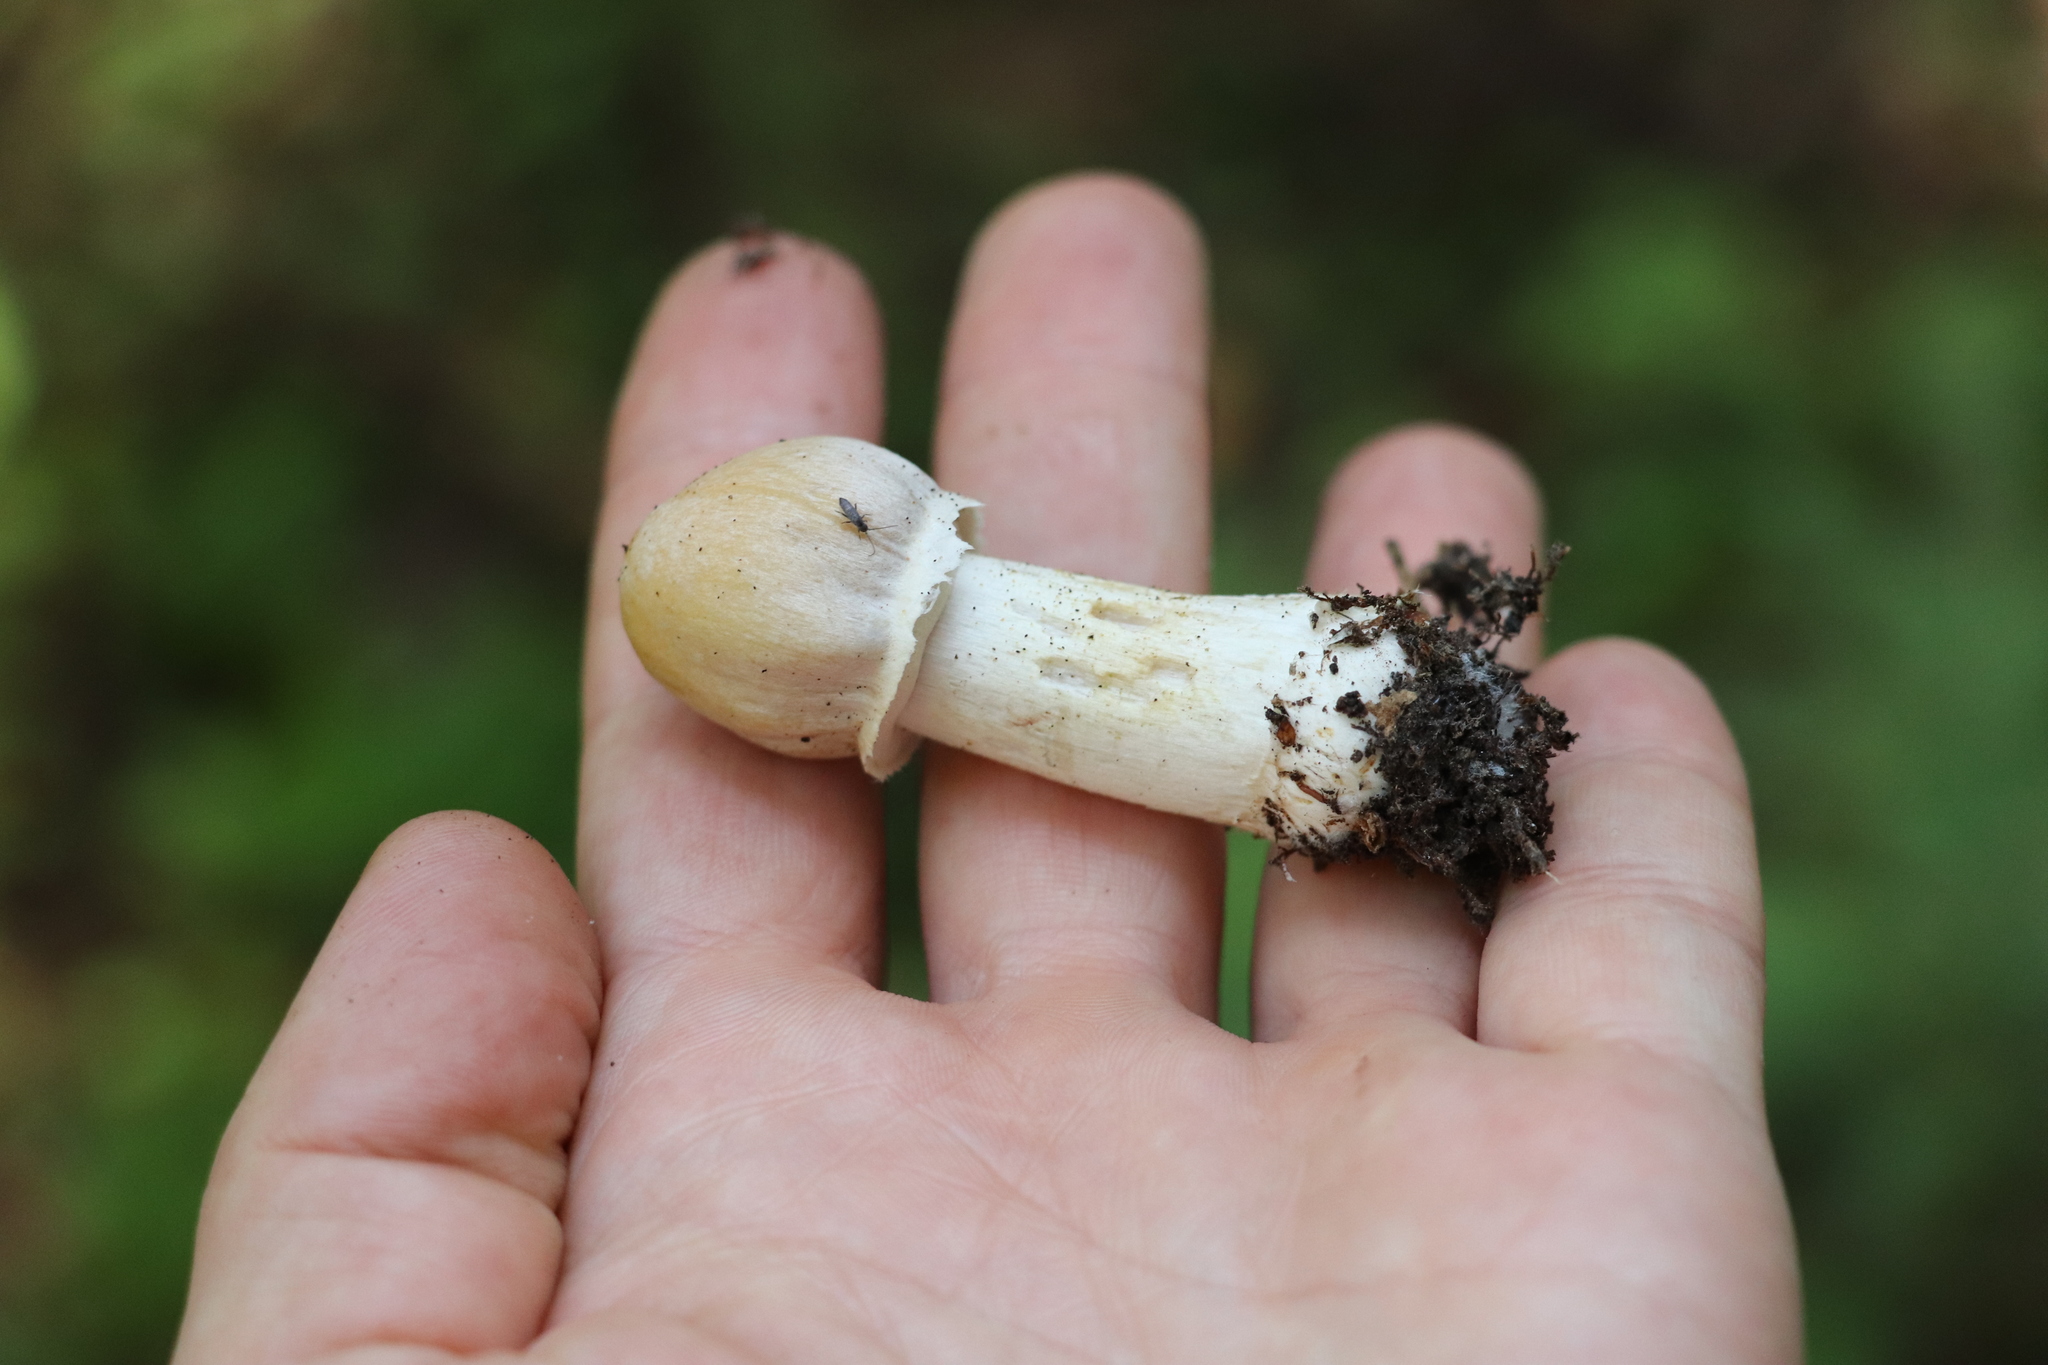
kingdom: Fungi
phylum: Basidiomycota
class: Agaricomycetes
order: Agaricales
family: Cortinariaceae
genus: Cortinarius
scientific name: Cortinarius caperatus
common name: The gypsy
